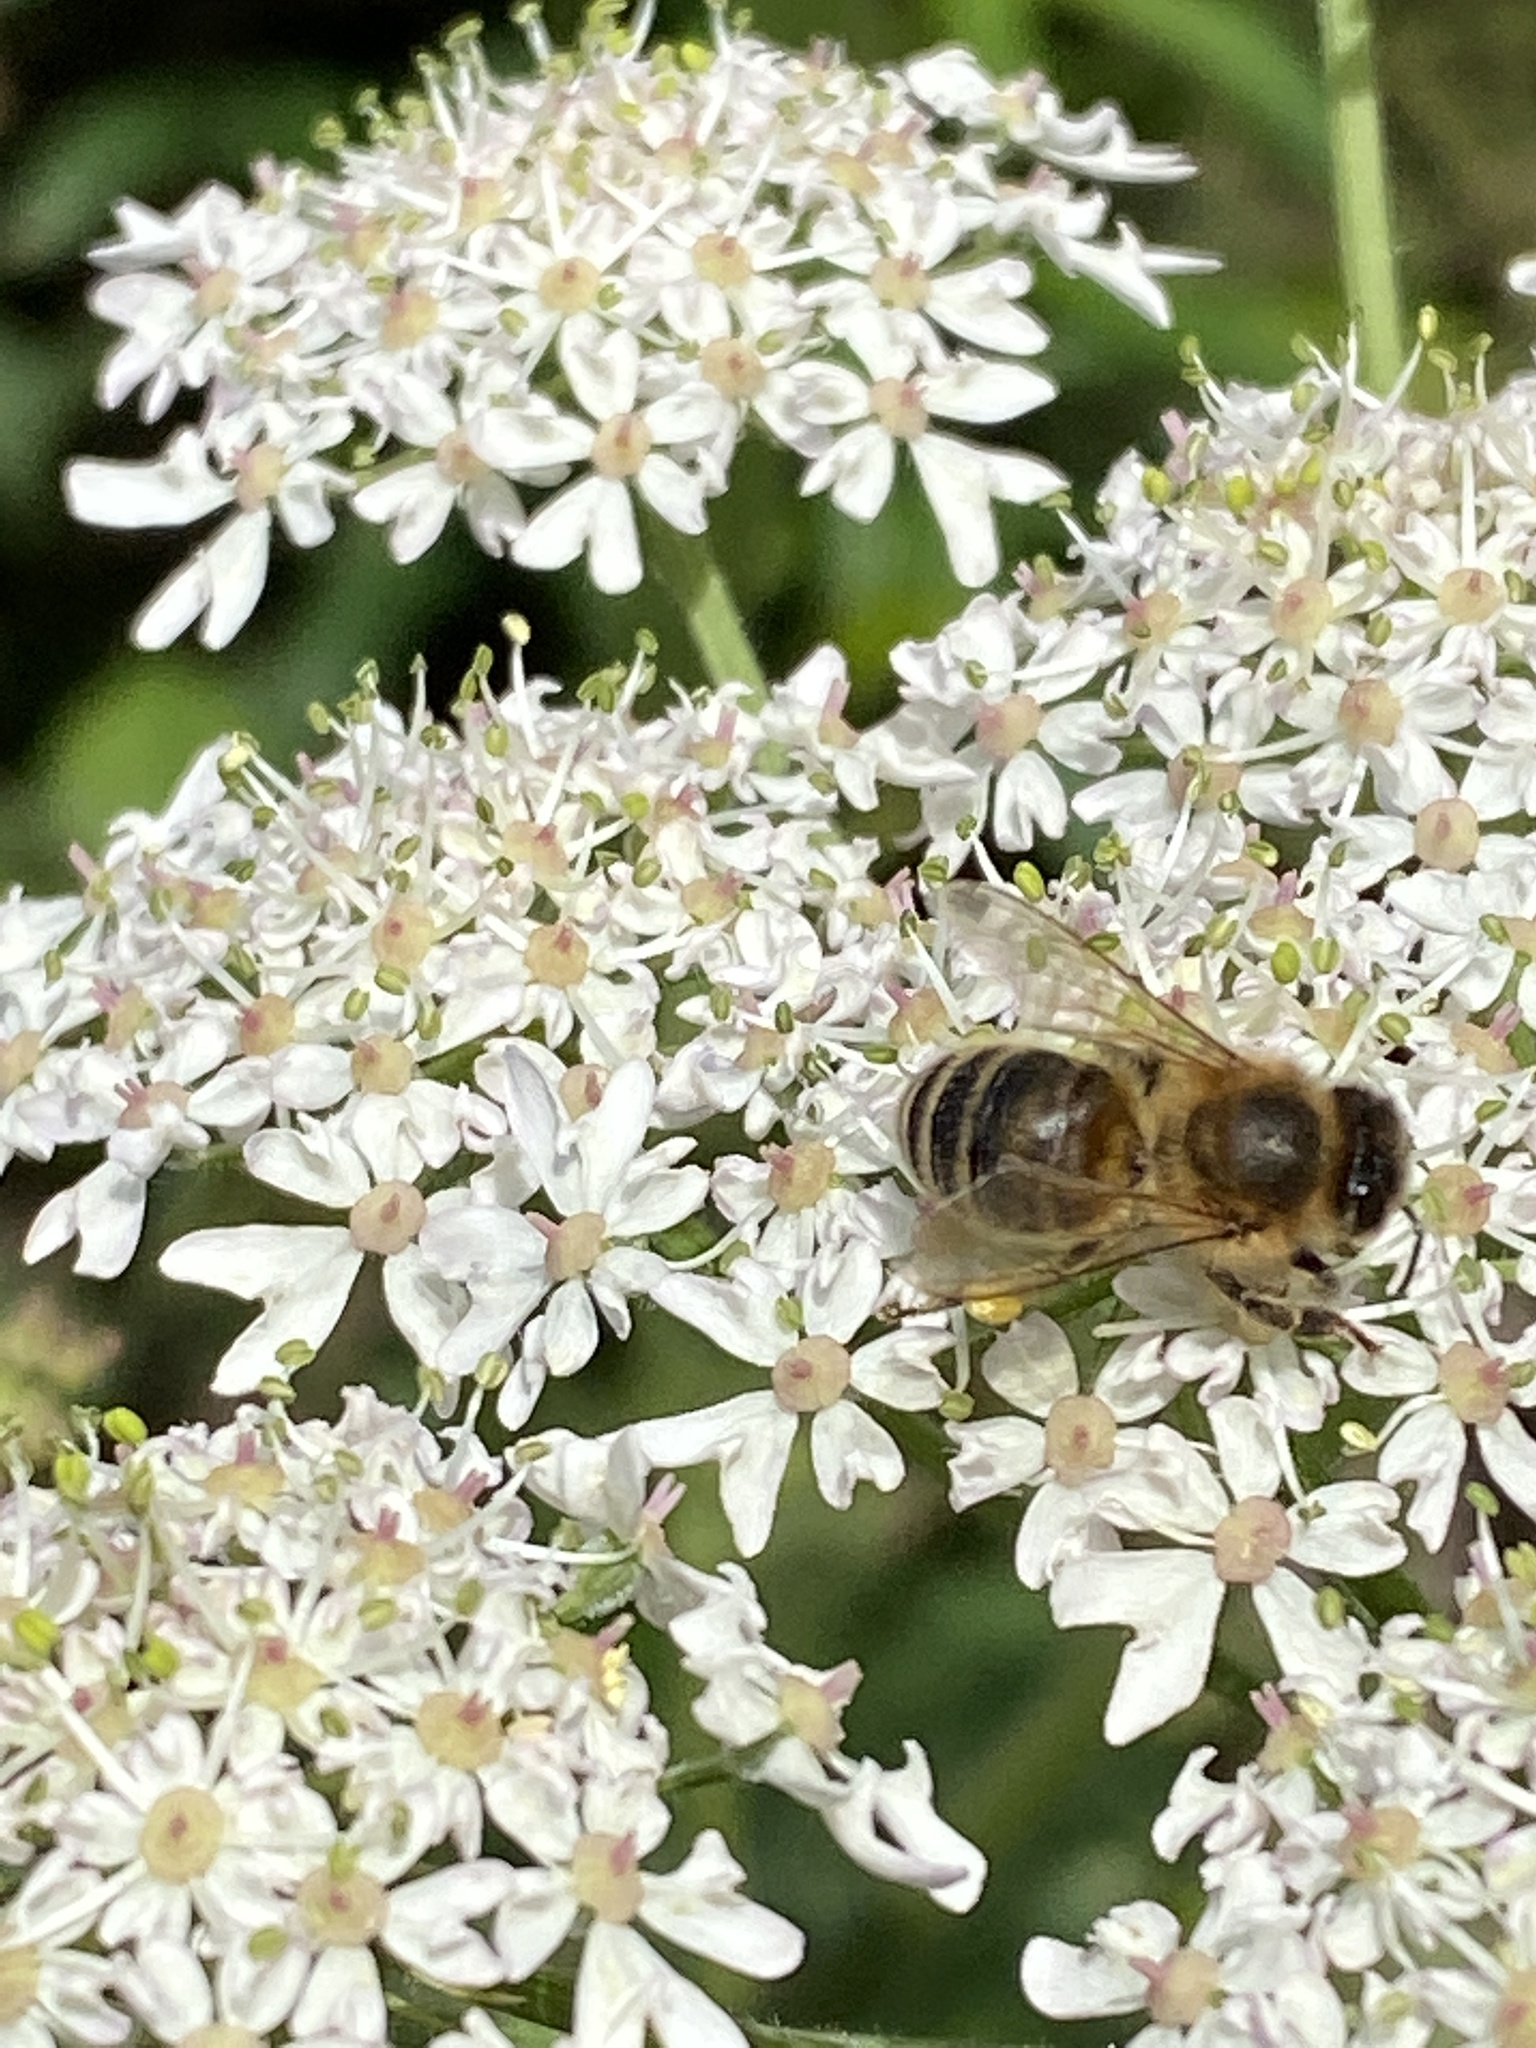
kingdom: Animalia
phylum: Arthropoda
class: Insecta
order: Hymenoptera
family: Apidae
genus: Apis
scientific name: Apis mellifera
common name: Honey bee
